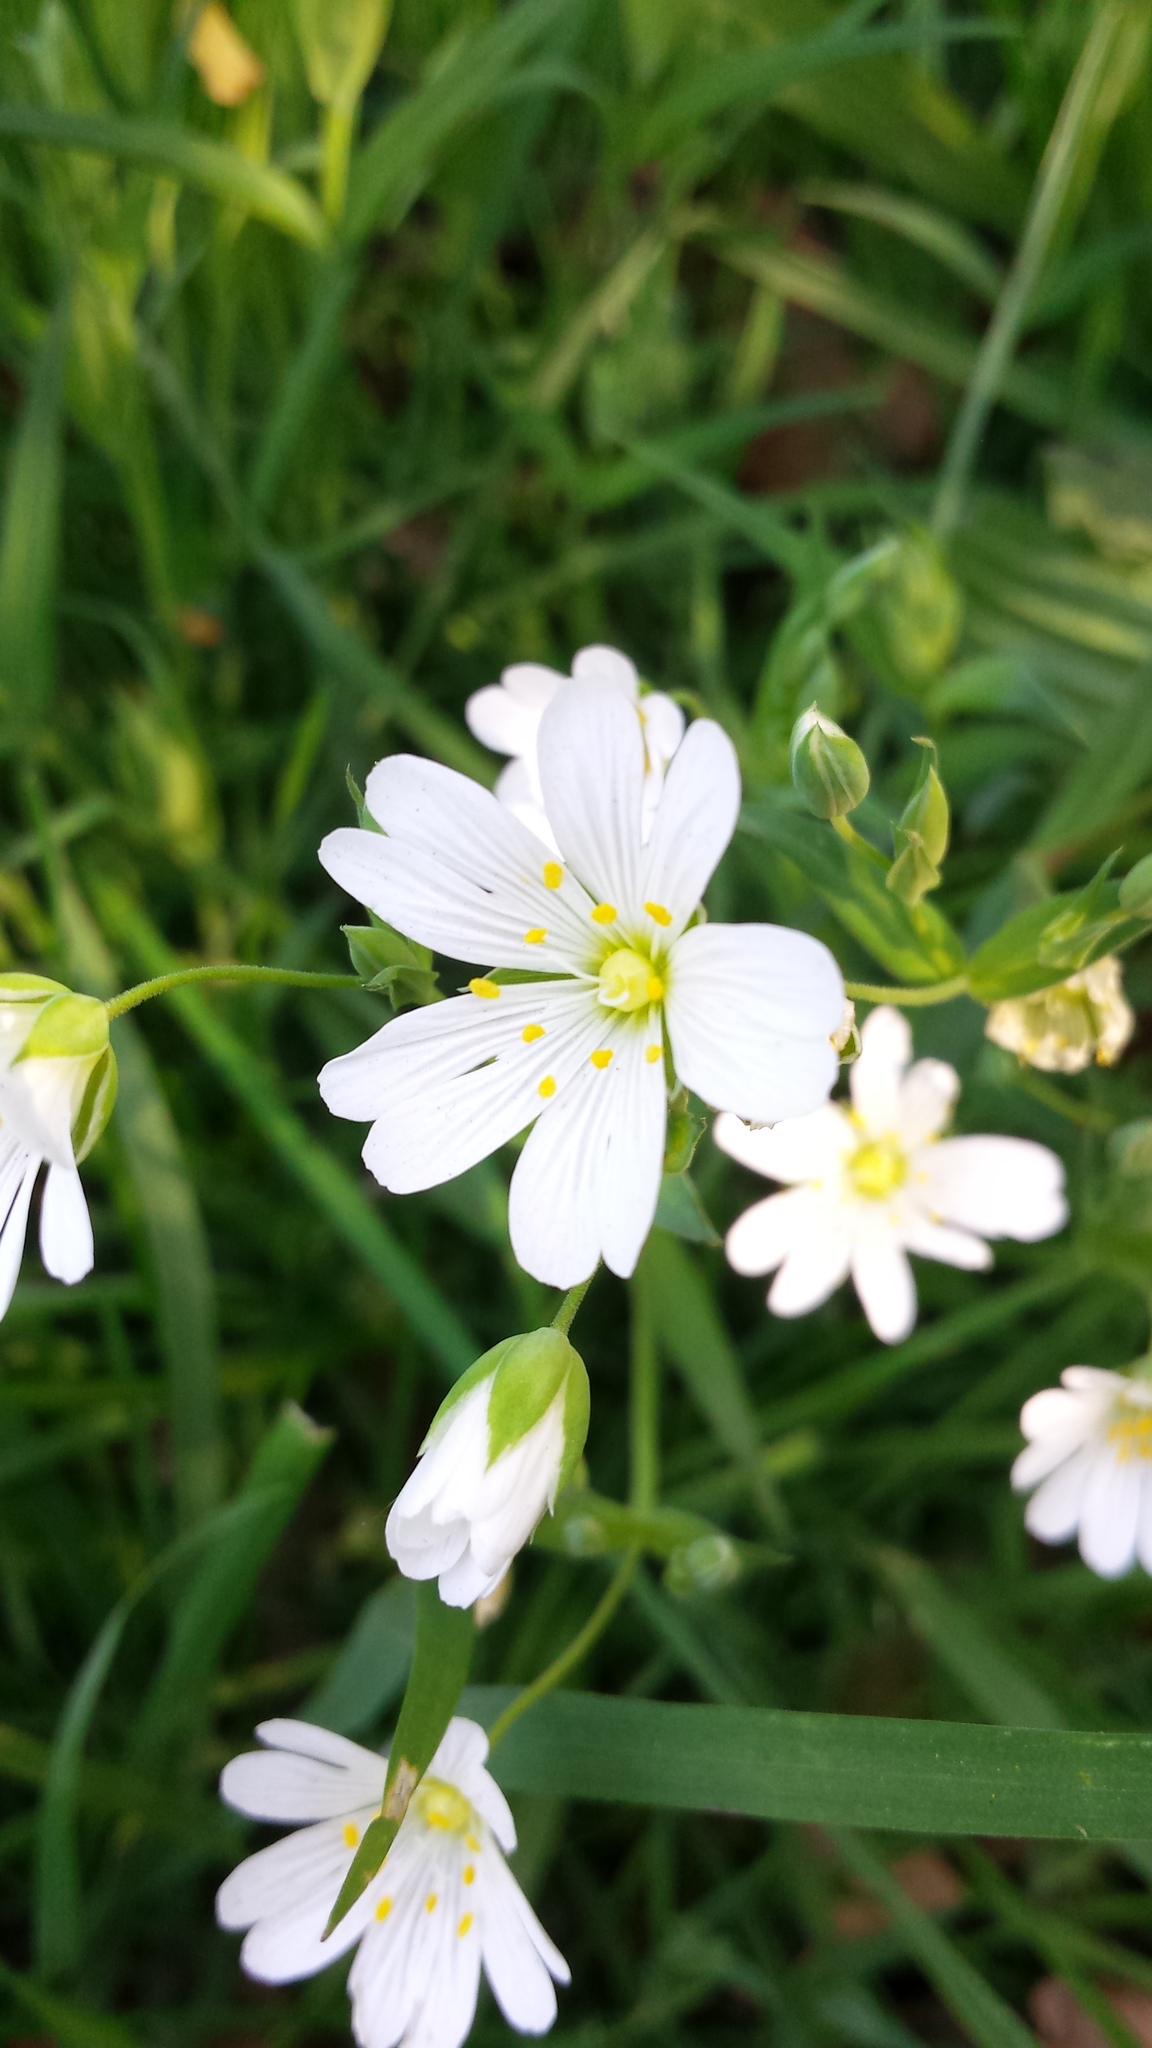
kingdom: Plantae
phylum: Tracheophyta
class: Magnoliopsida
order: Caryophyllales
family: Caryophyllaceae
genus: Rabelera
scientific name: Rabelera holostea
